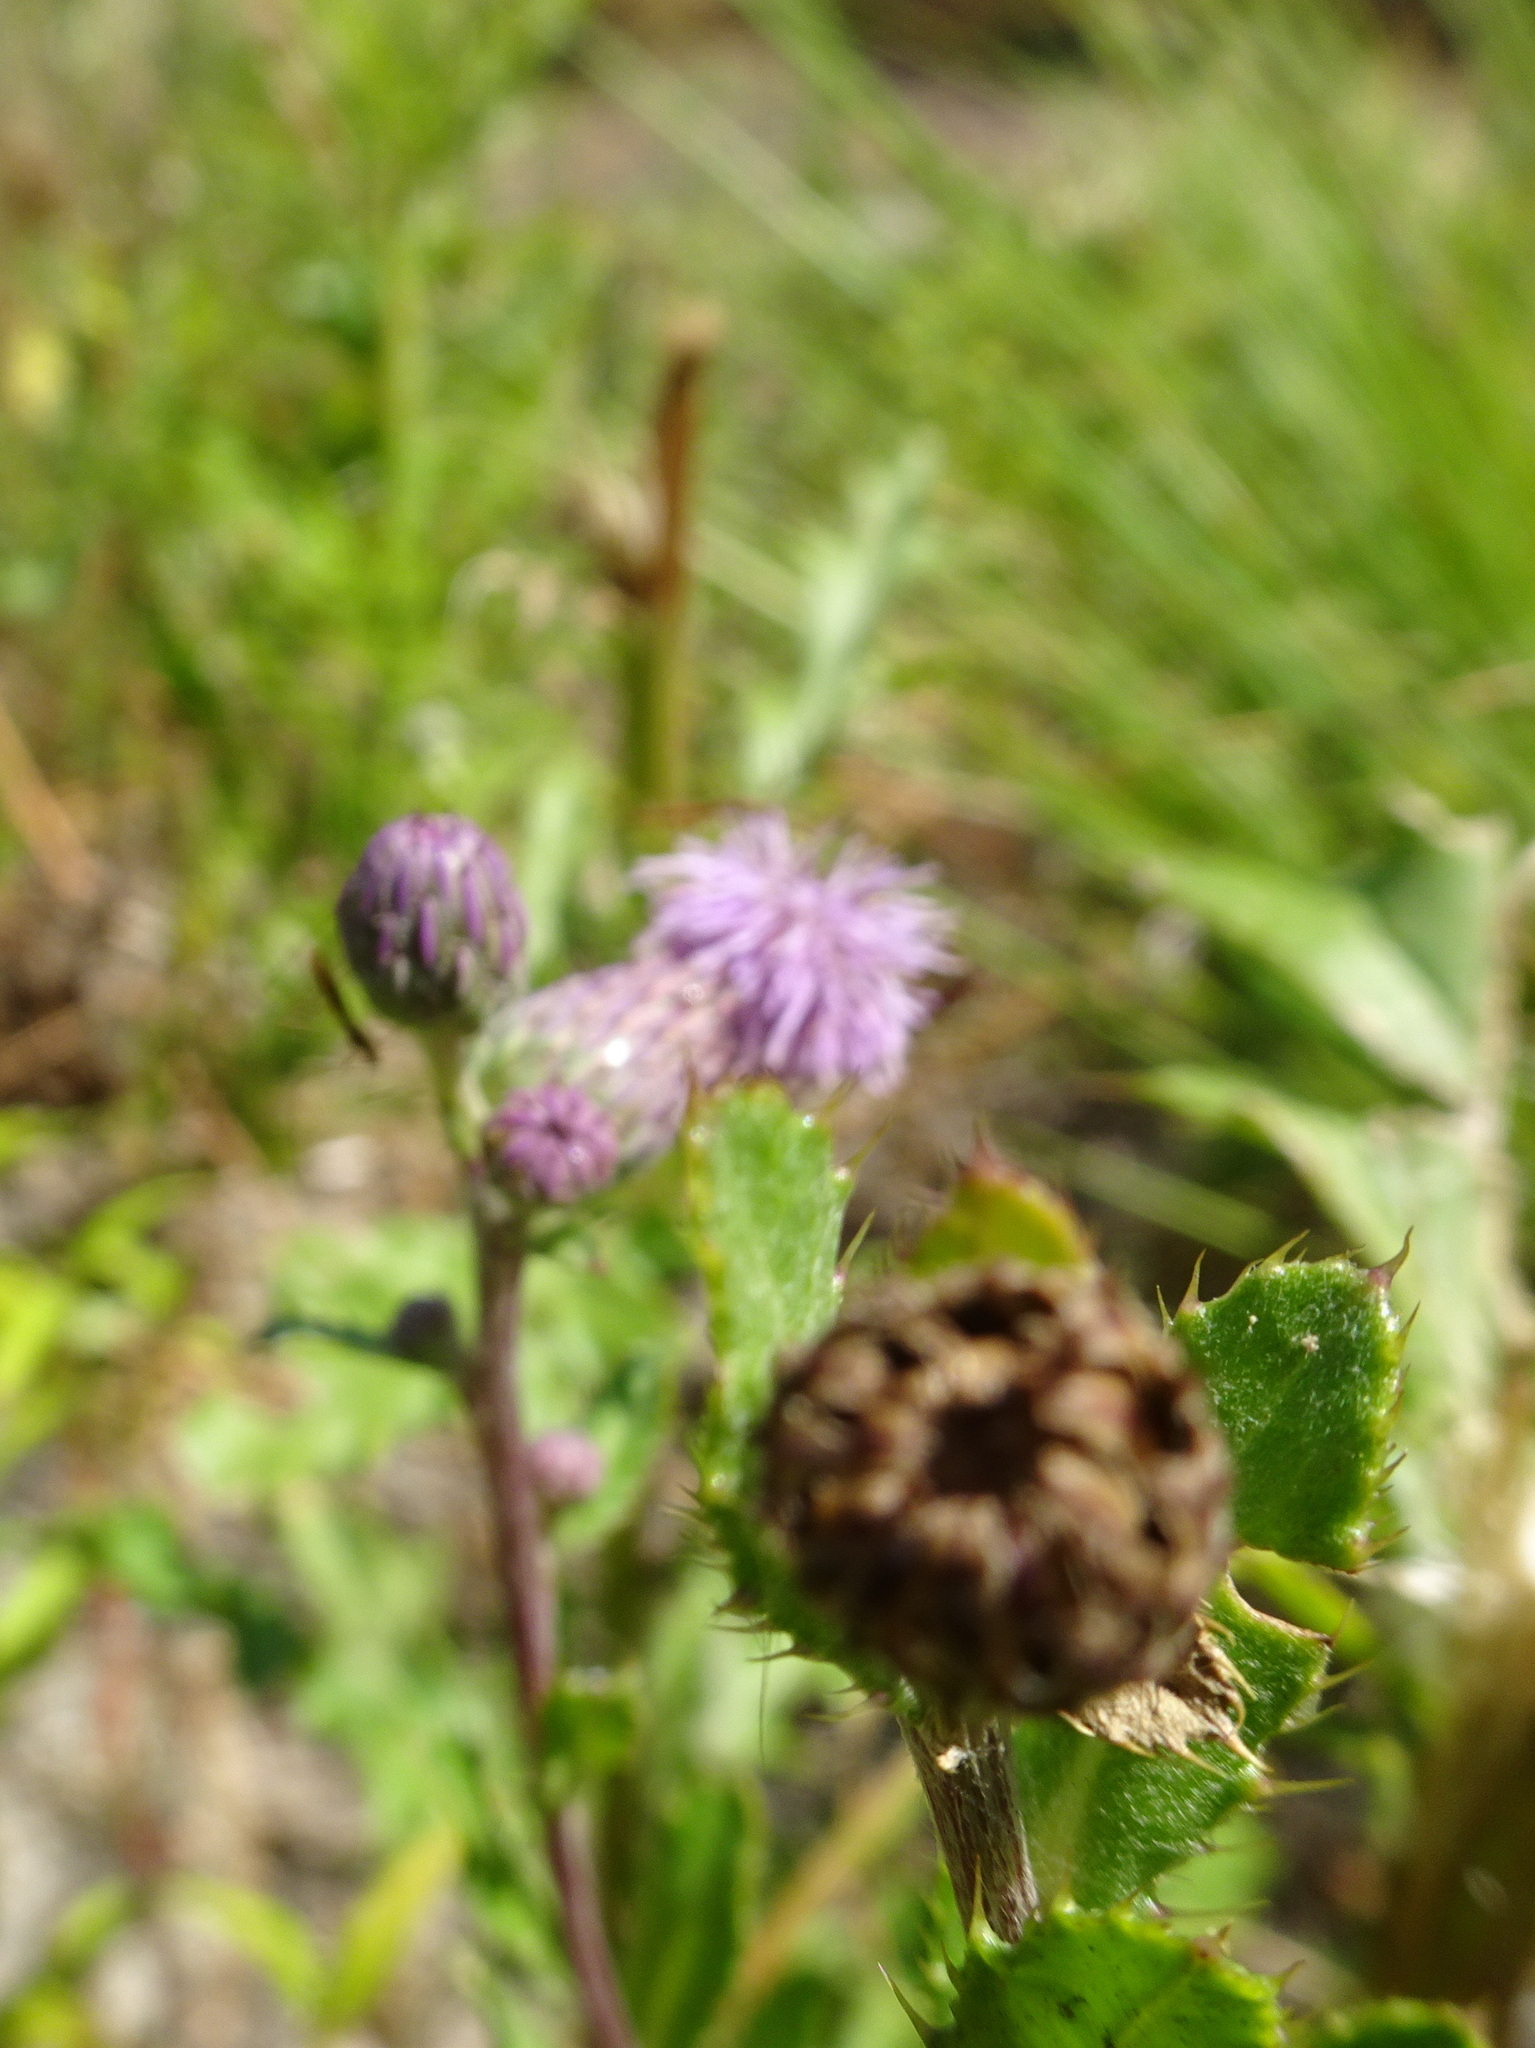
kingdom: Plantae
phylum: Tracheophyta
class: Magnoliopsida
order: Asterales
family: Asteraceae
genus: Cirsium
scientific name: Cirsium arvense
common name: Creeping thistle
